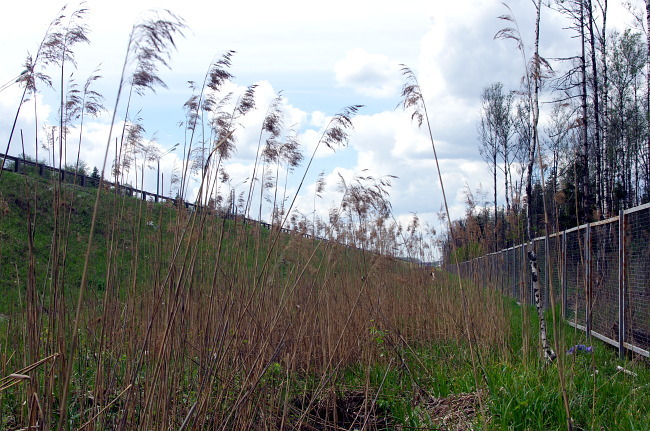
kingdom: Plantae
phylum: Tracheophyta
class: Liliopsida
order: Poales
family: Poaceae
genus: Phragmites
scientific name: Phragmites australis
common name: Common reed
